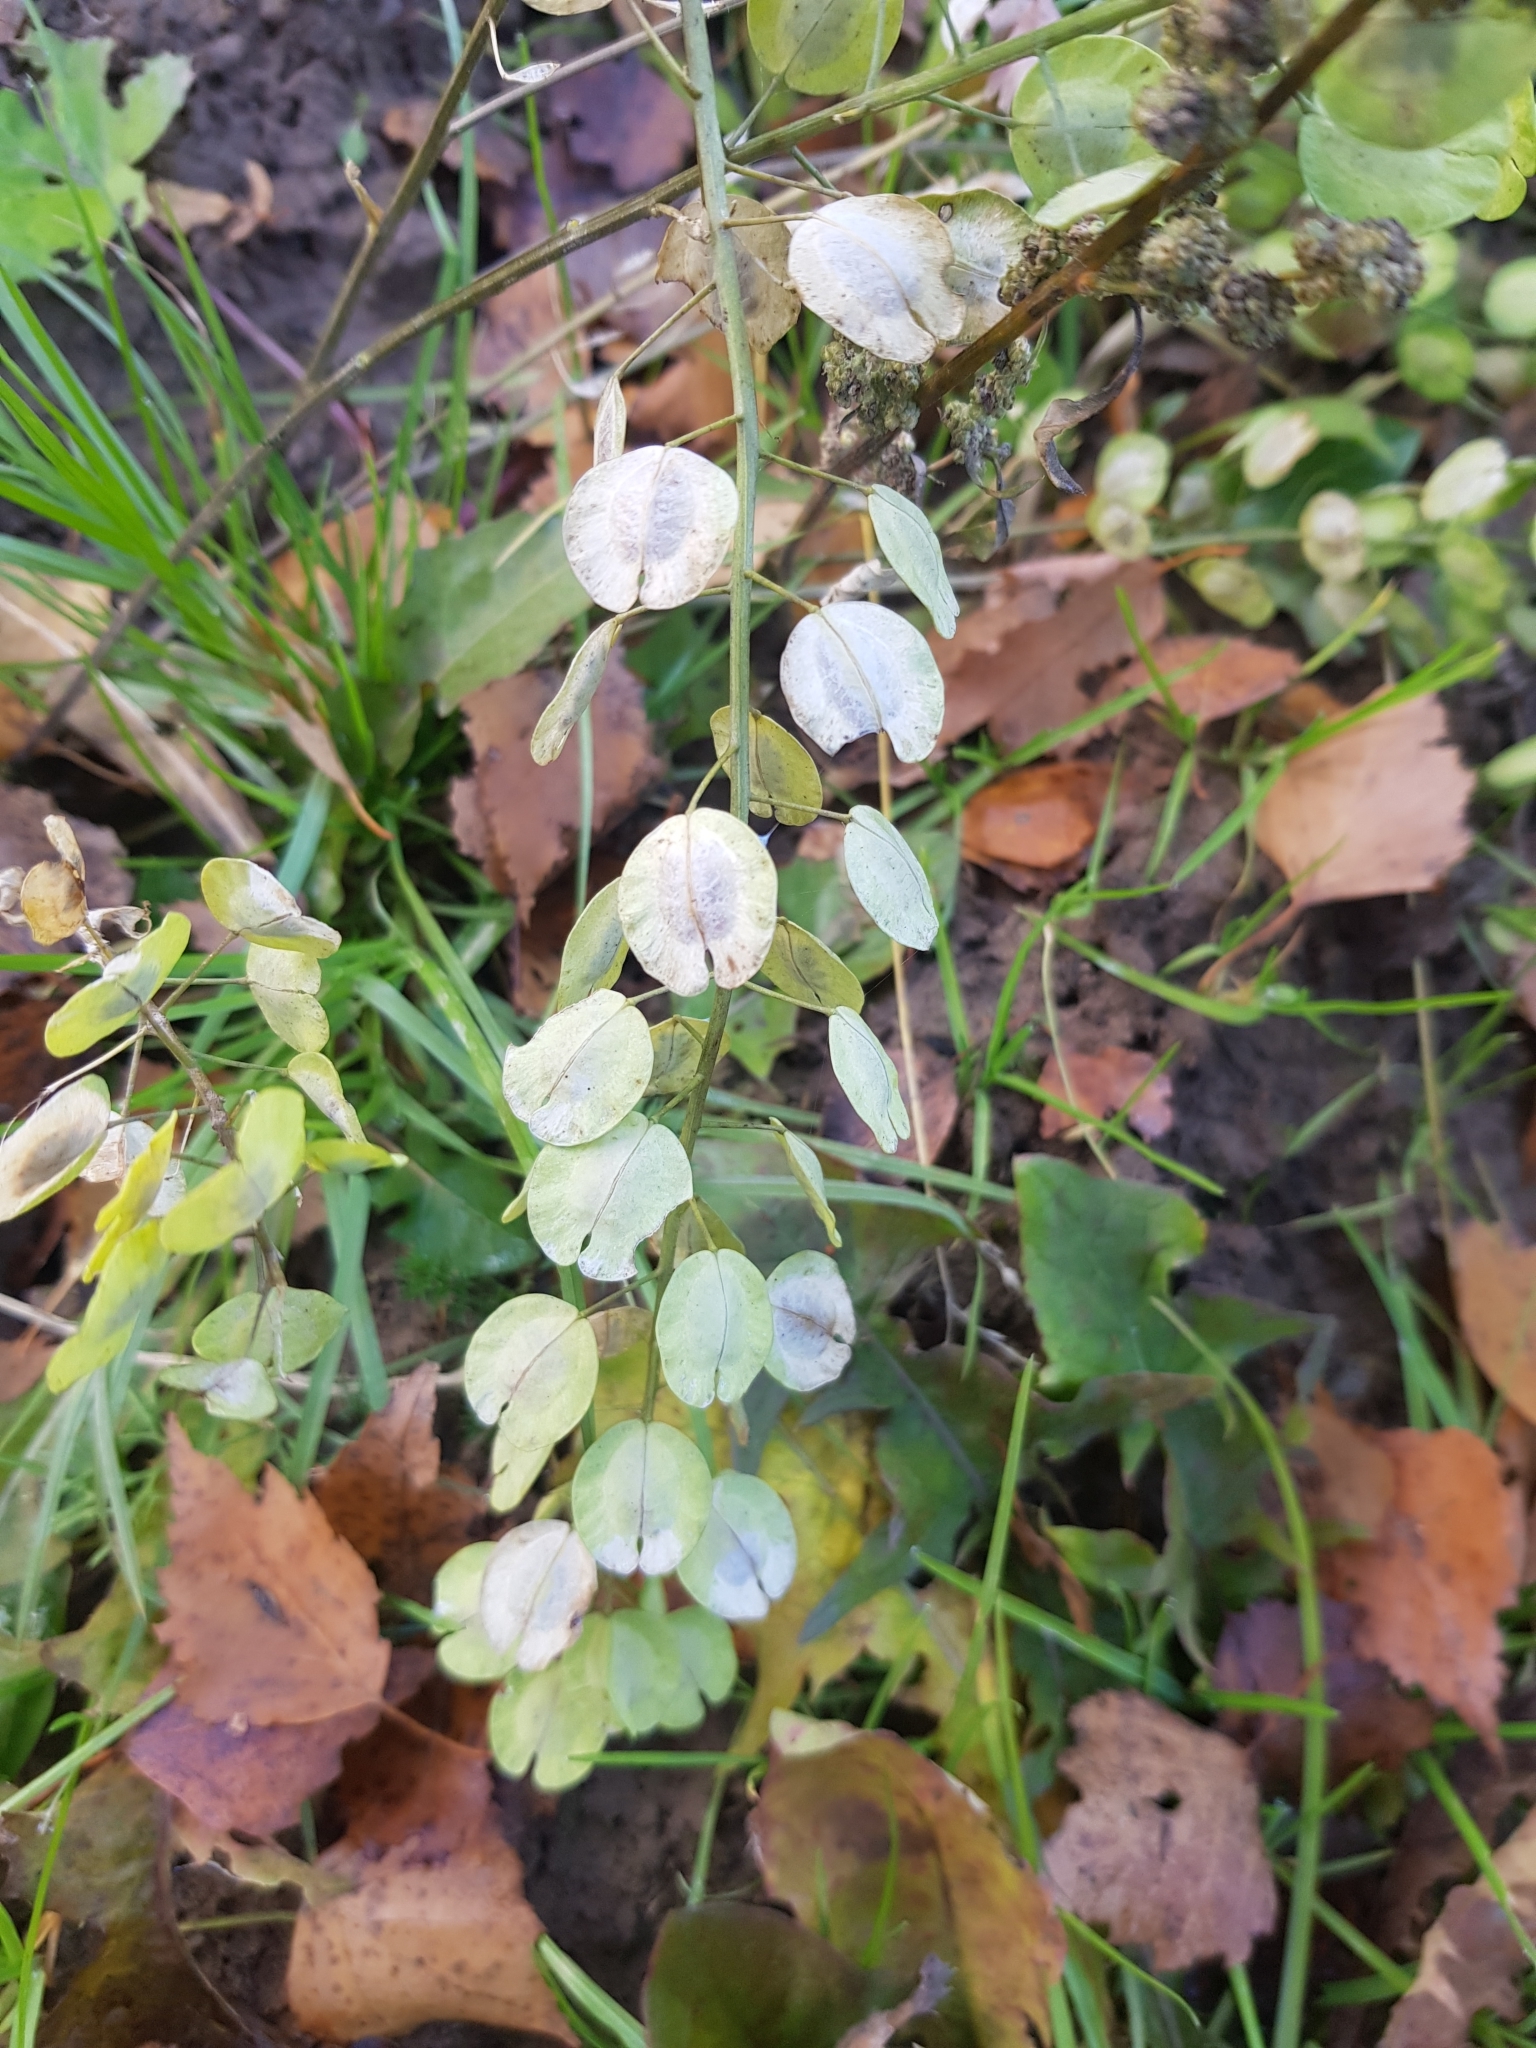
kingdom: Plantae
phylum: Tracheophyta
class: Magnoliopsida
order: Brassicales
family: Brassicaceae
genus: Thlaspi
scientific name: Thlaspi arvense
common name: Field pennycress
